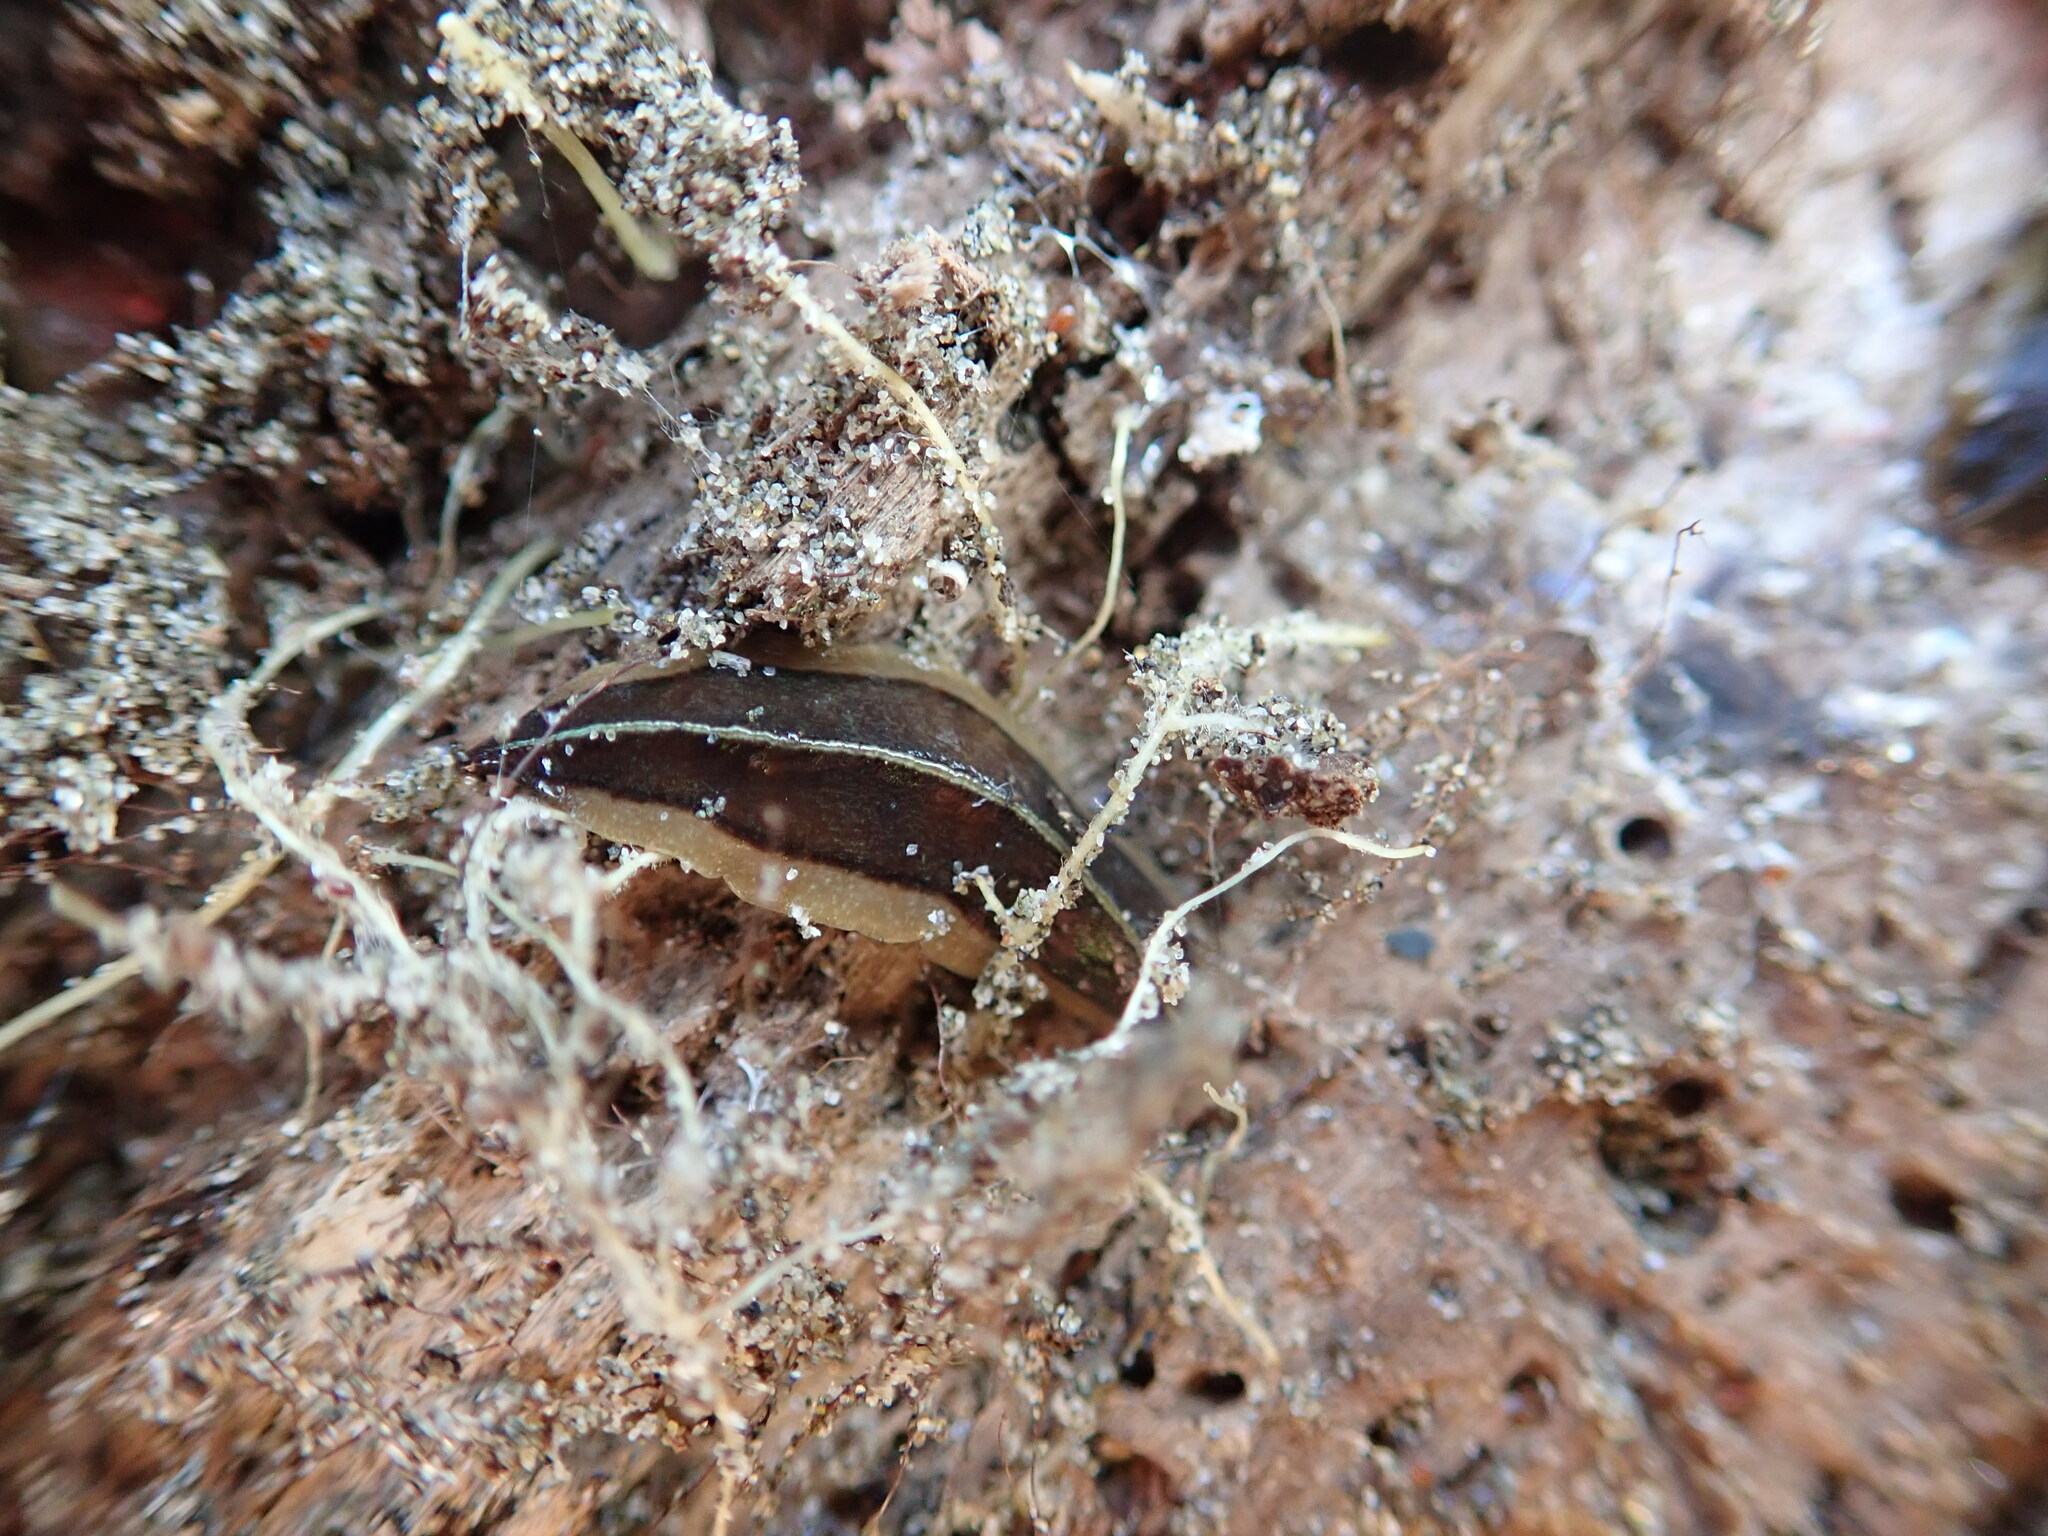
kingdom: Animalia
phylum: Platyhelminthes
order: Tricladida
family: Geoplanidae
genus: Newzealandia
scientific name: Newzealandia graffii
